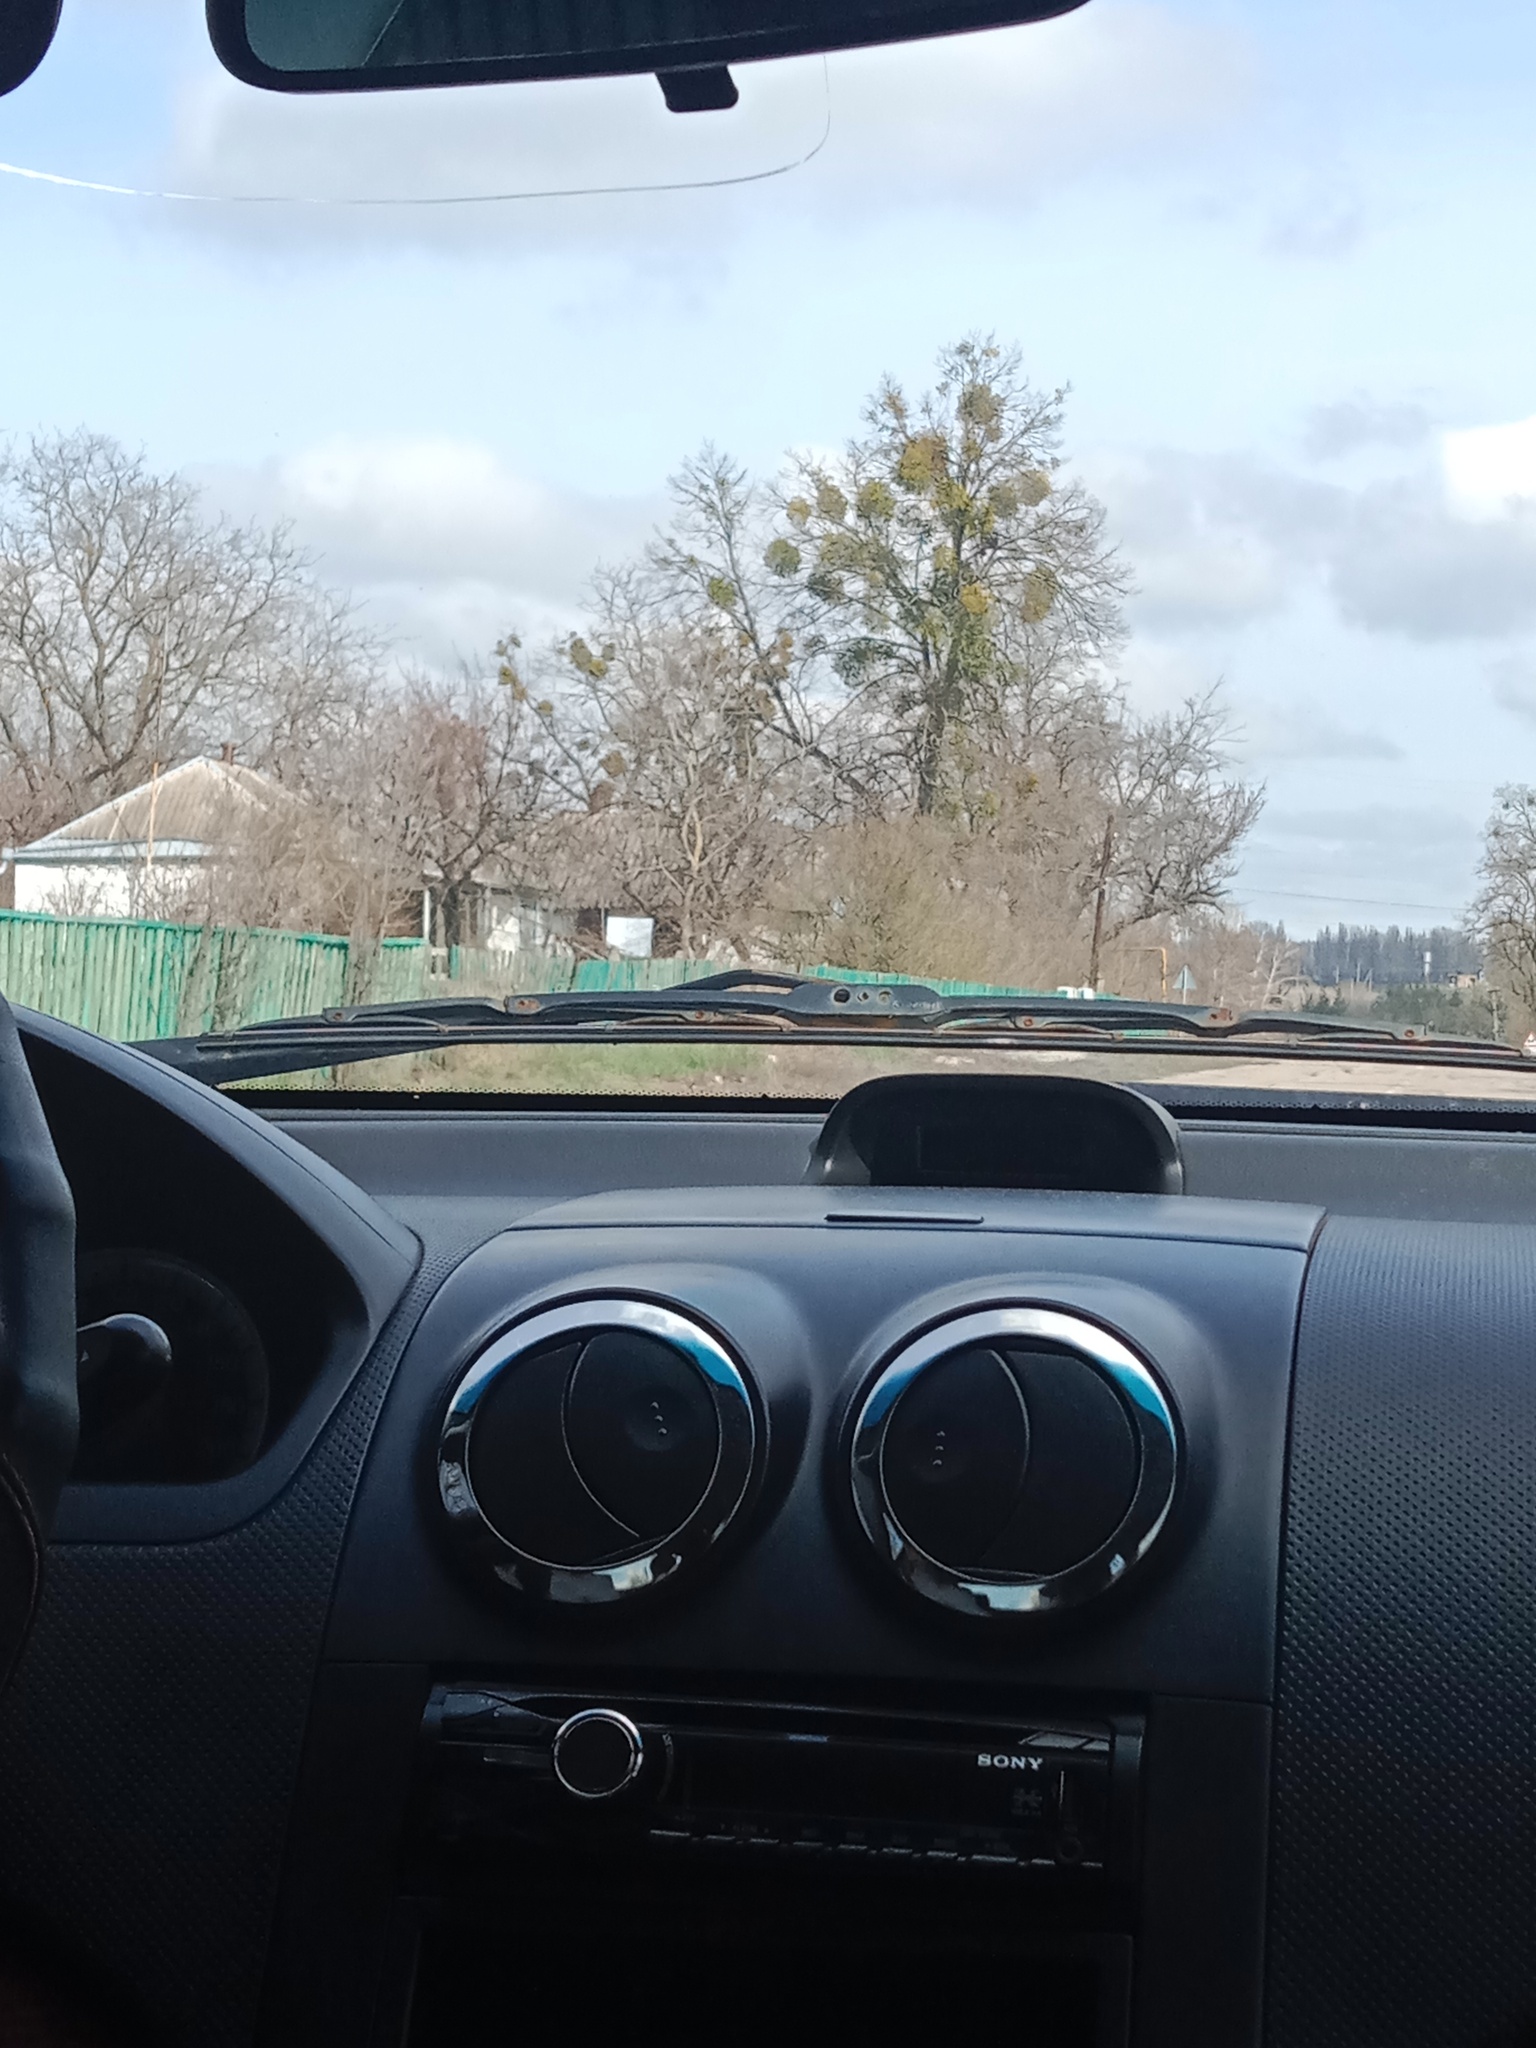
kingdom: Plantae
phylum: Tracheophyta
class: Magnoliopsida
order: Santalales
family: Viscaceae
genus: Viscum
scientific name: Viscum album
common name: Mistletoe
